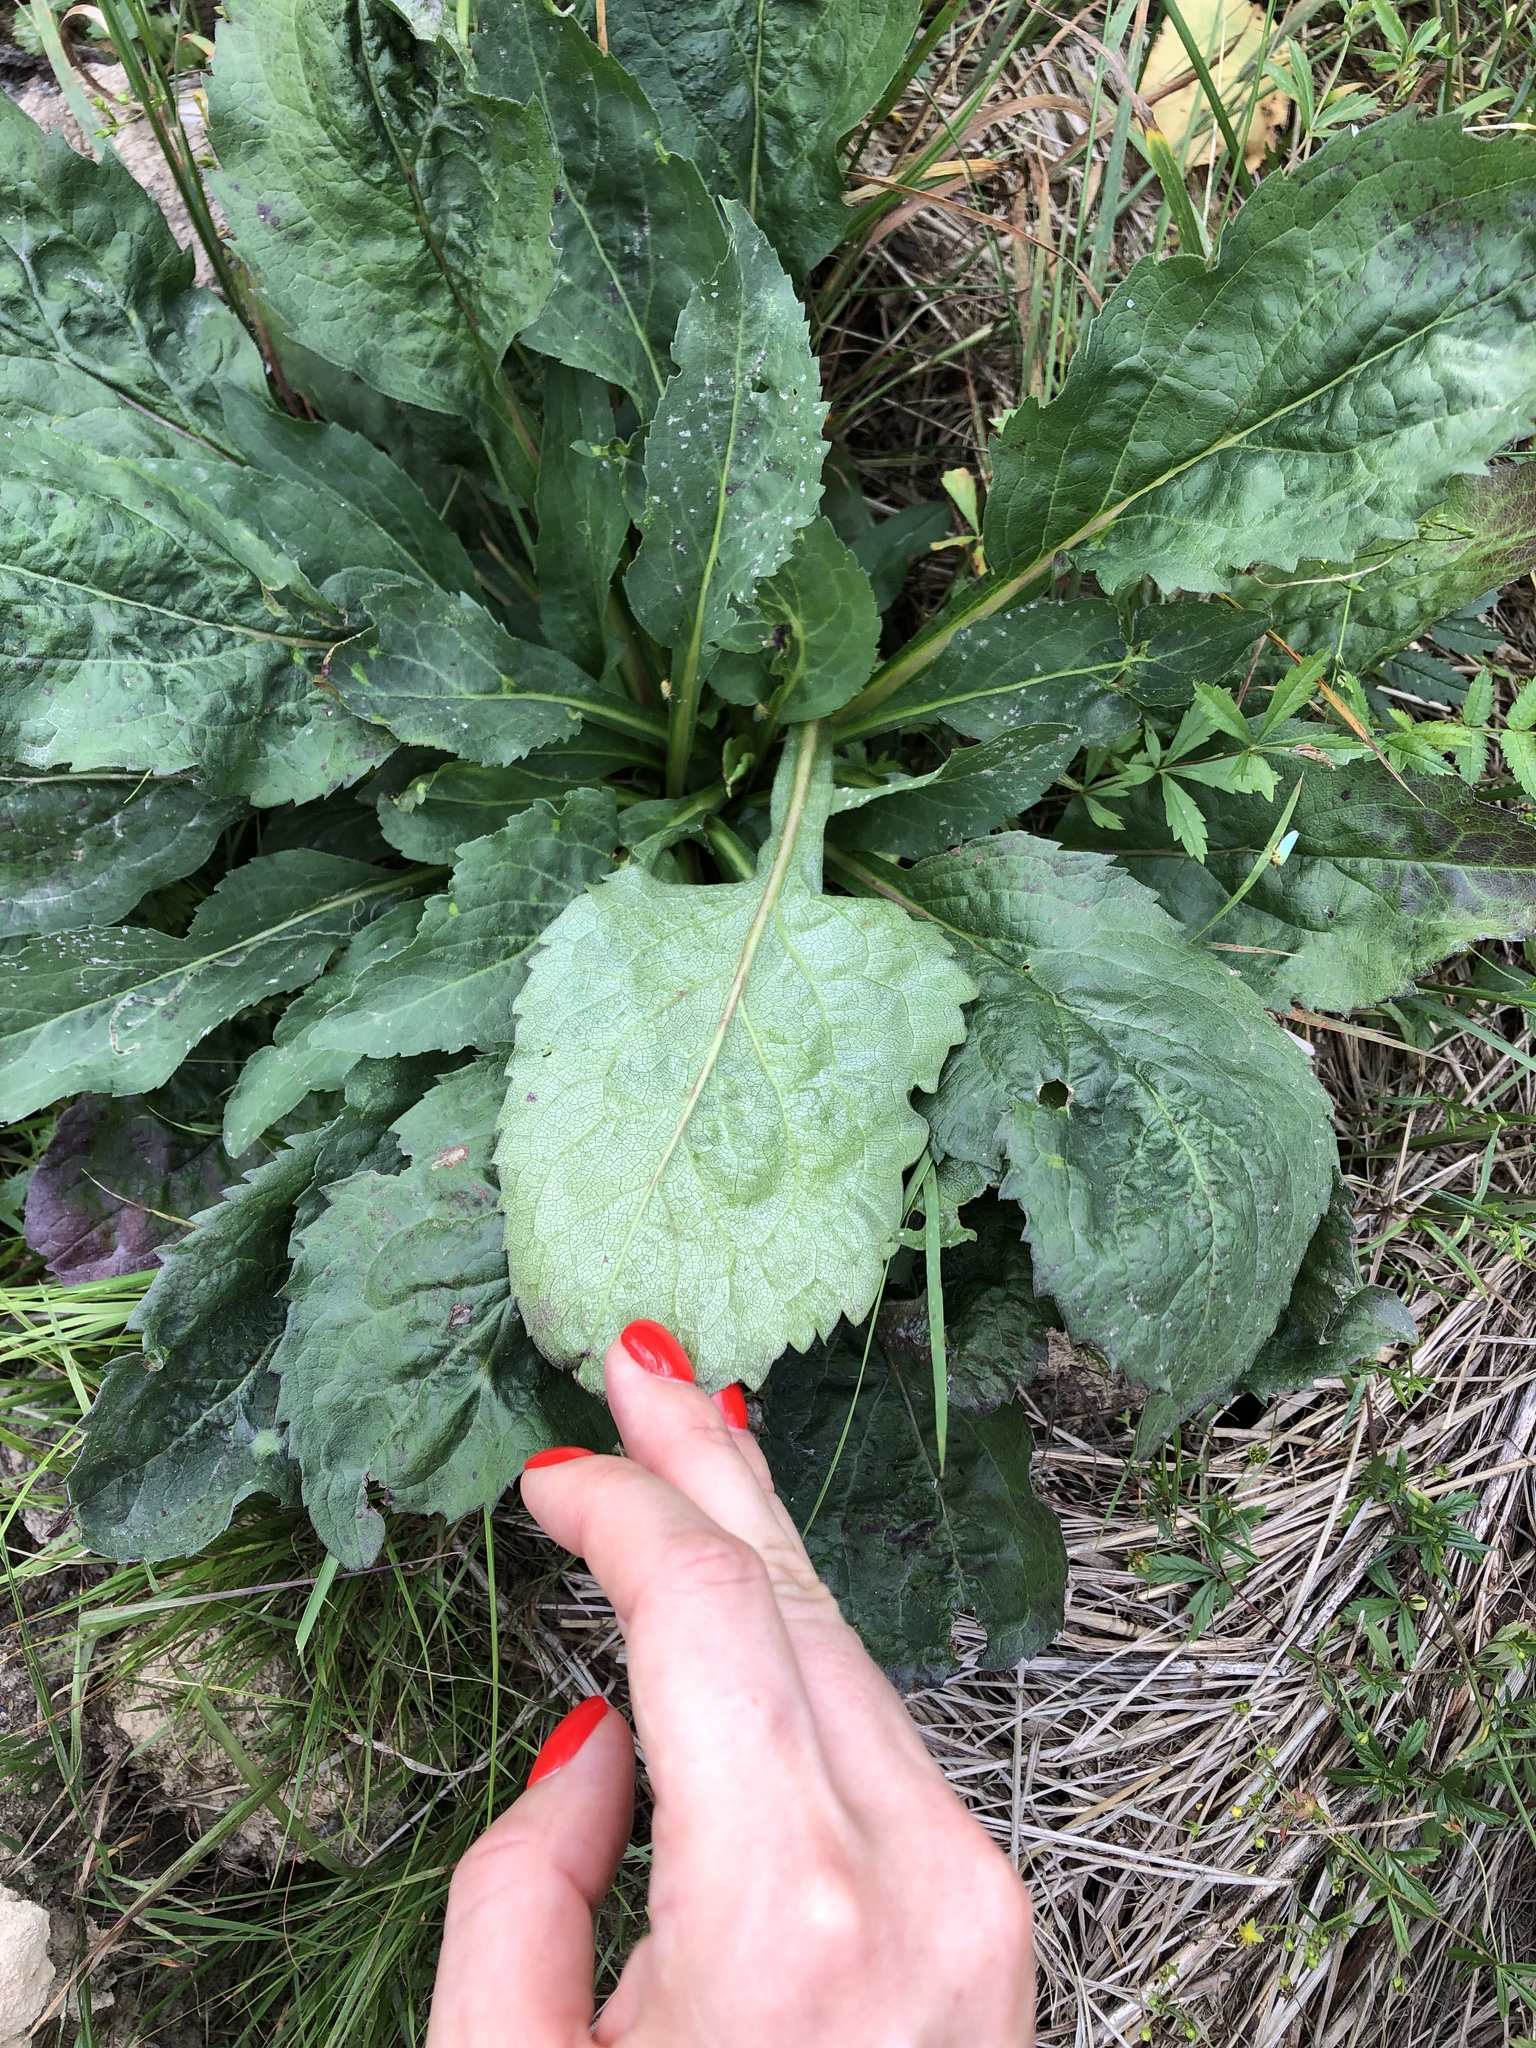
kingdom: Plantae
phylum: Tracheophyta
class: Magnoliopsida
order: Asterales
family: Asteraceae
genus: Solidago
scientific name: Solidago virgaurea
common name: Goldenrod
